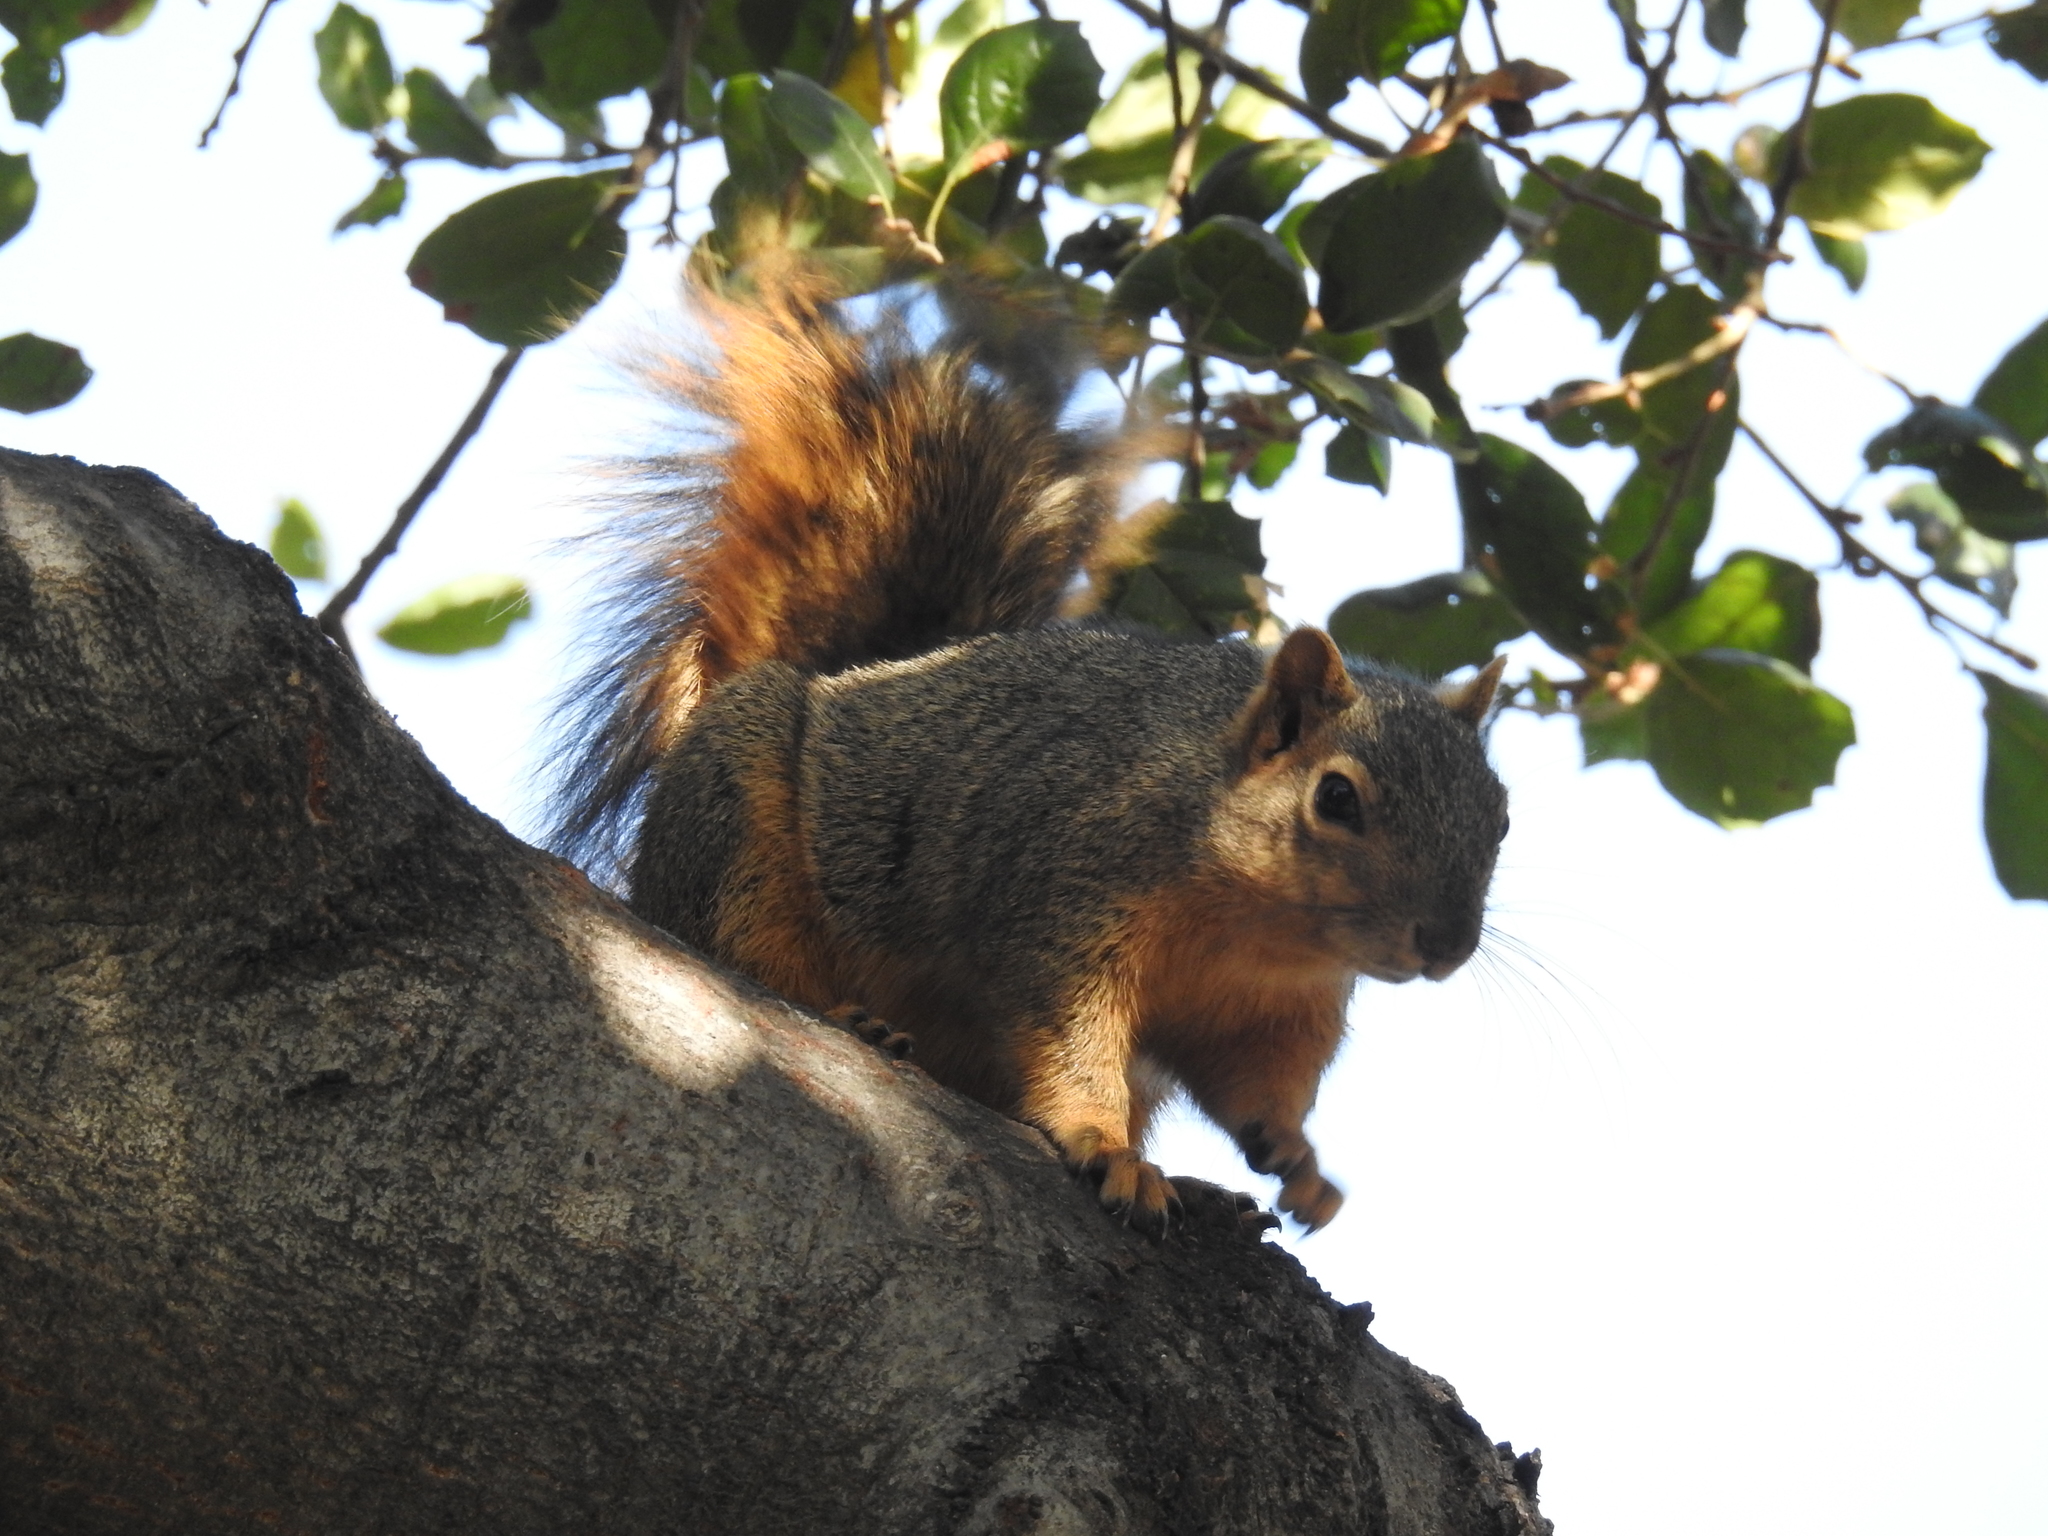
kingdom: Animalia
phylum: Chordata
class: Mammalia
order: Rodentia
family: Sciuridae
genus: Sciurus
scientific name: Sciurus niger
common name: Fox squirrel
